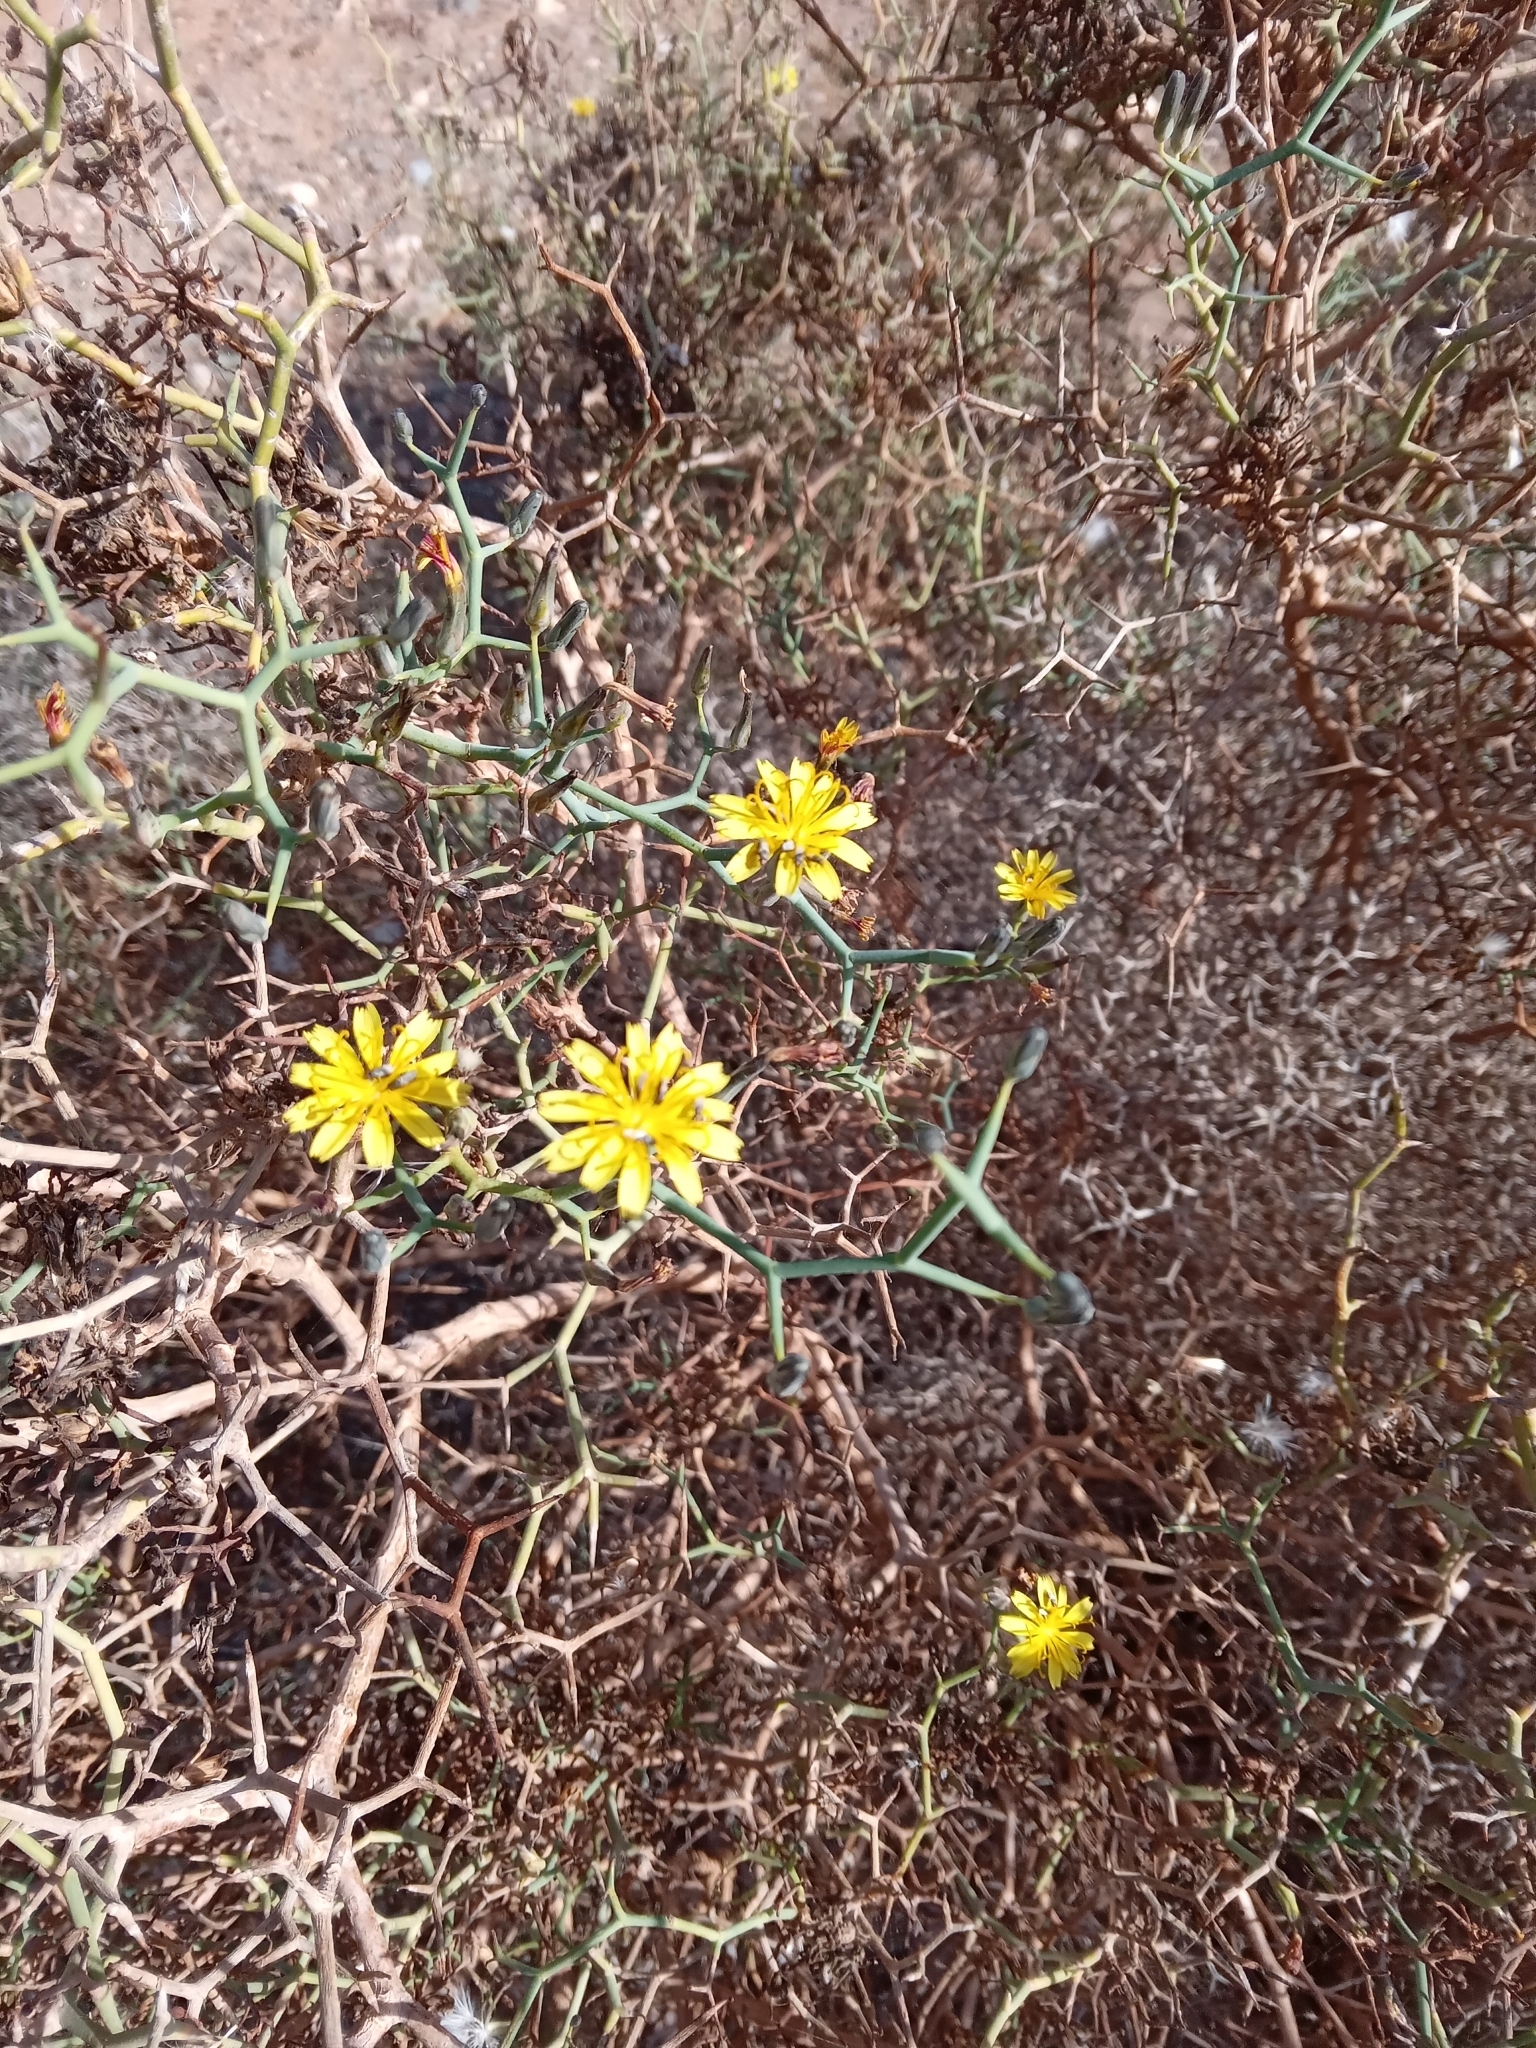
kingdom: Plantae
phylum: Tracheophyta
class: Magnoliopsida
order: Asterales
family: Asteraceae
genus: Launaea
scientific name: Launaea arborescens
